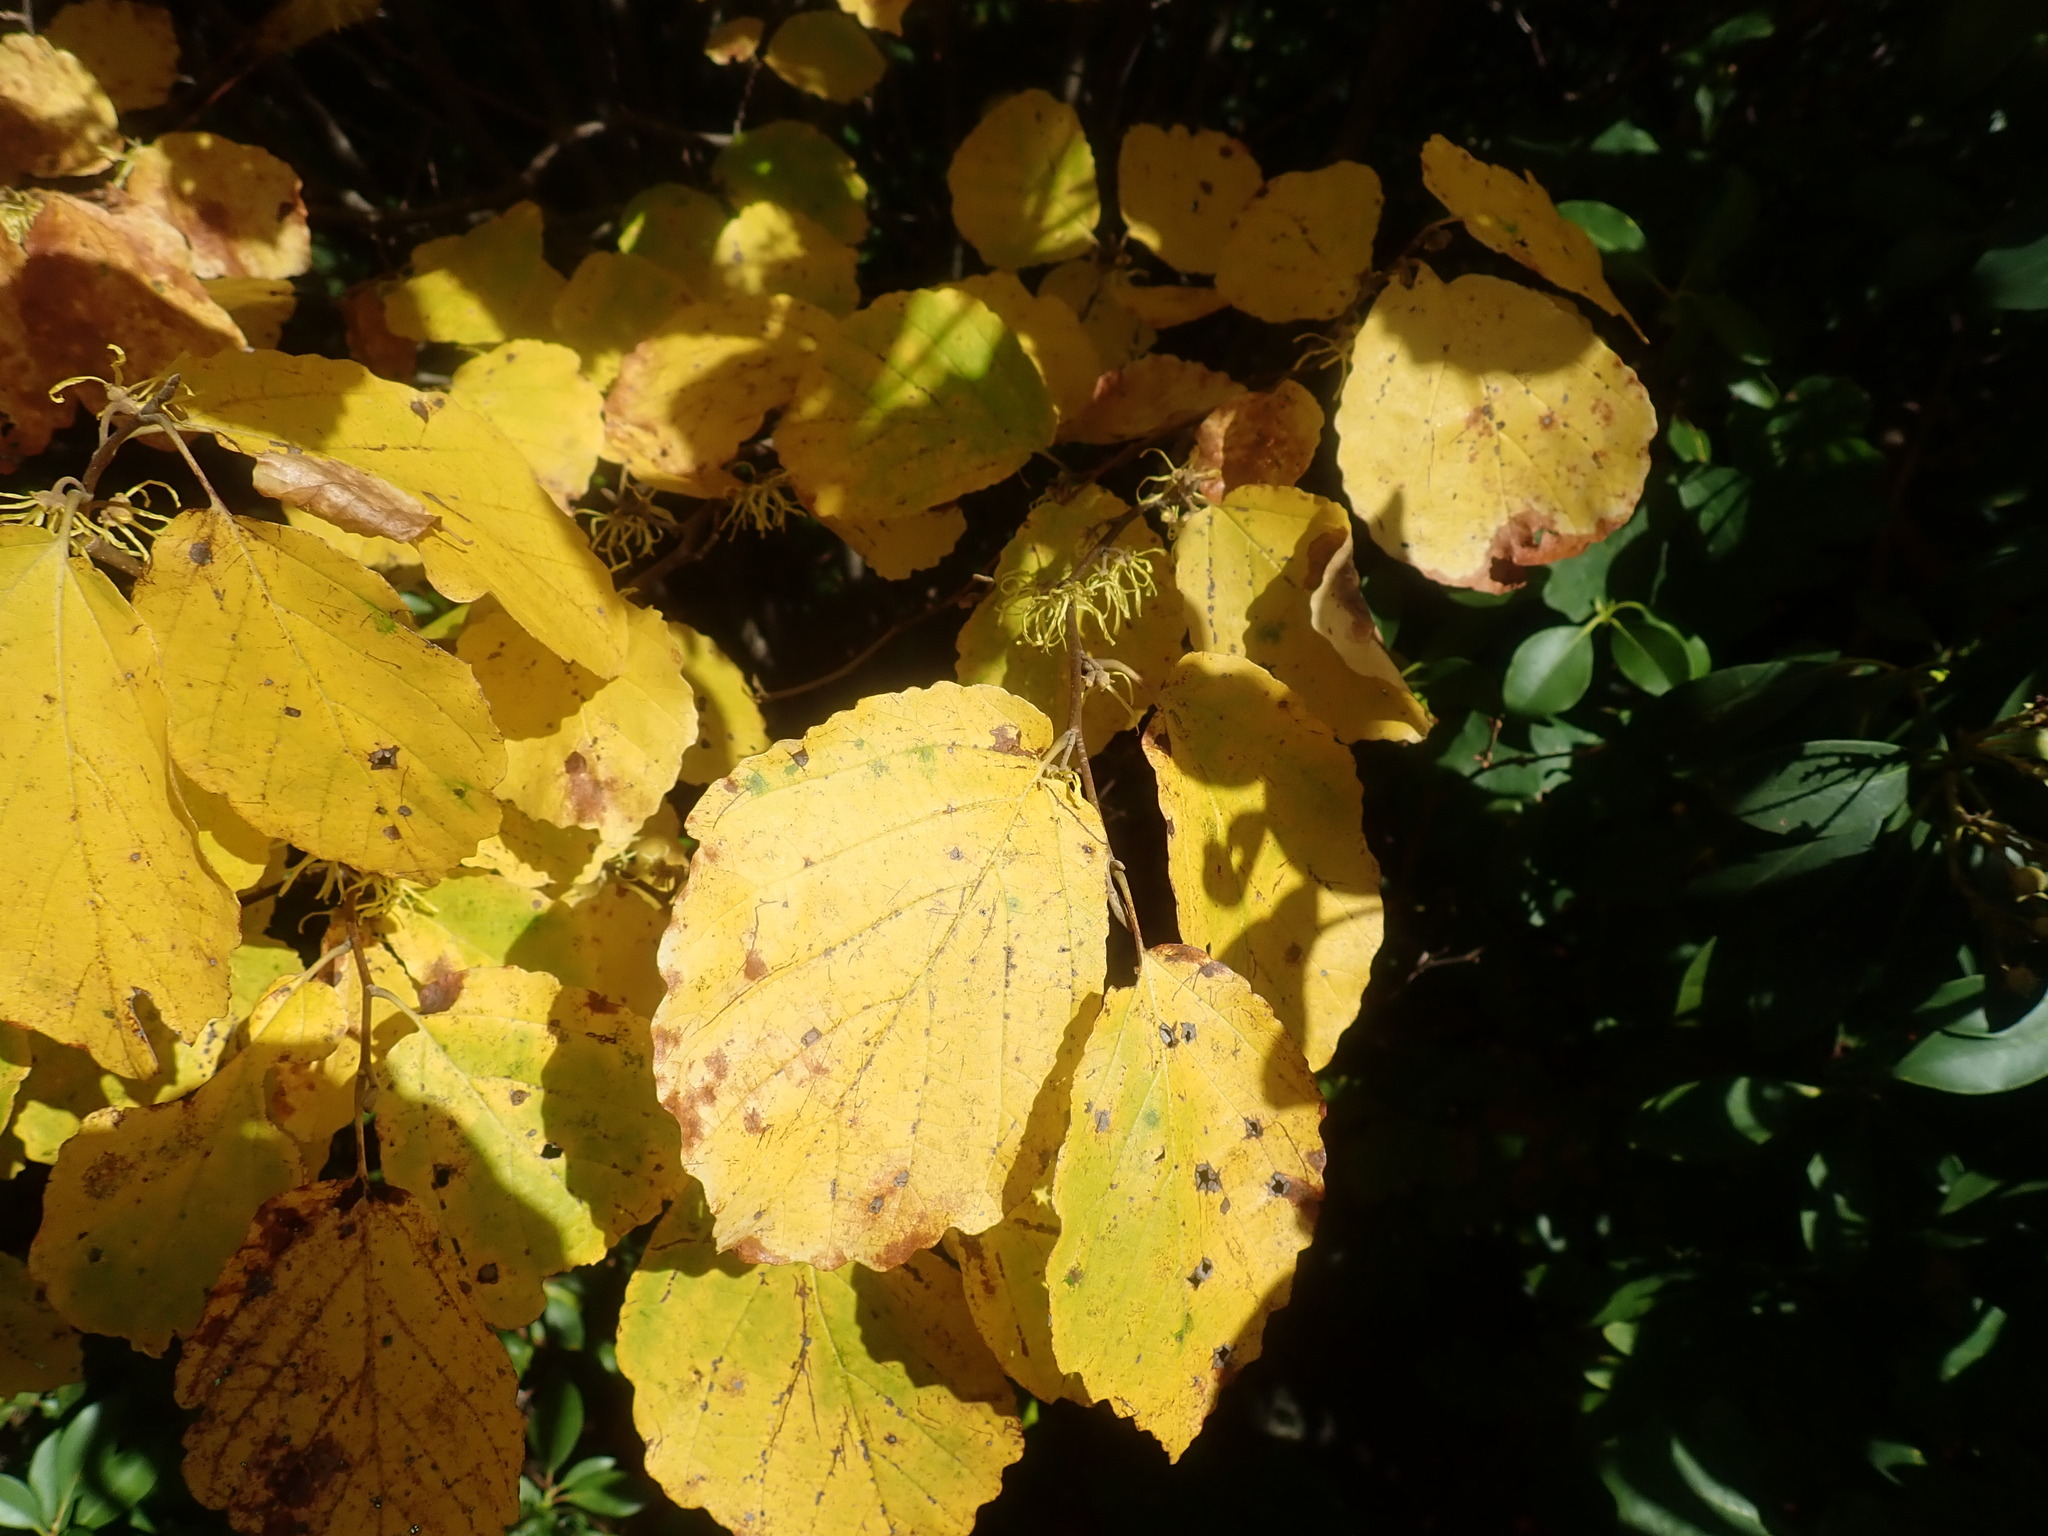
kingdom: Plantae
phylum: Tracheophyta
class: Magnoliopsida
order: Saxifragales
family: Hamamelidaceae
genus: Hamamelis
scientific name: Hamamelis virginiana
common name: Witch-hazel
